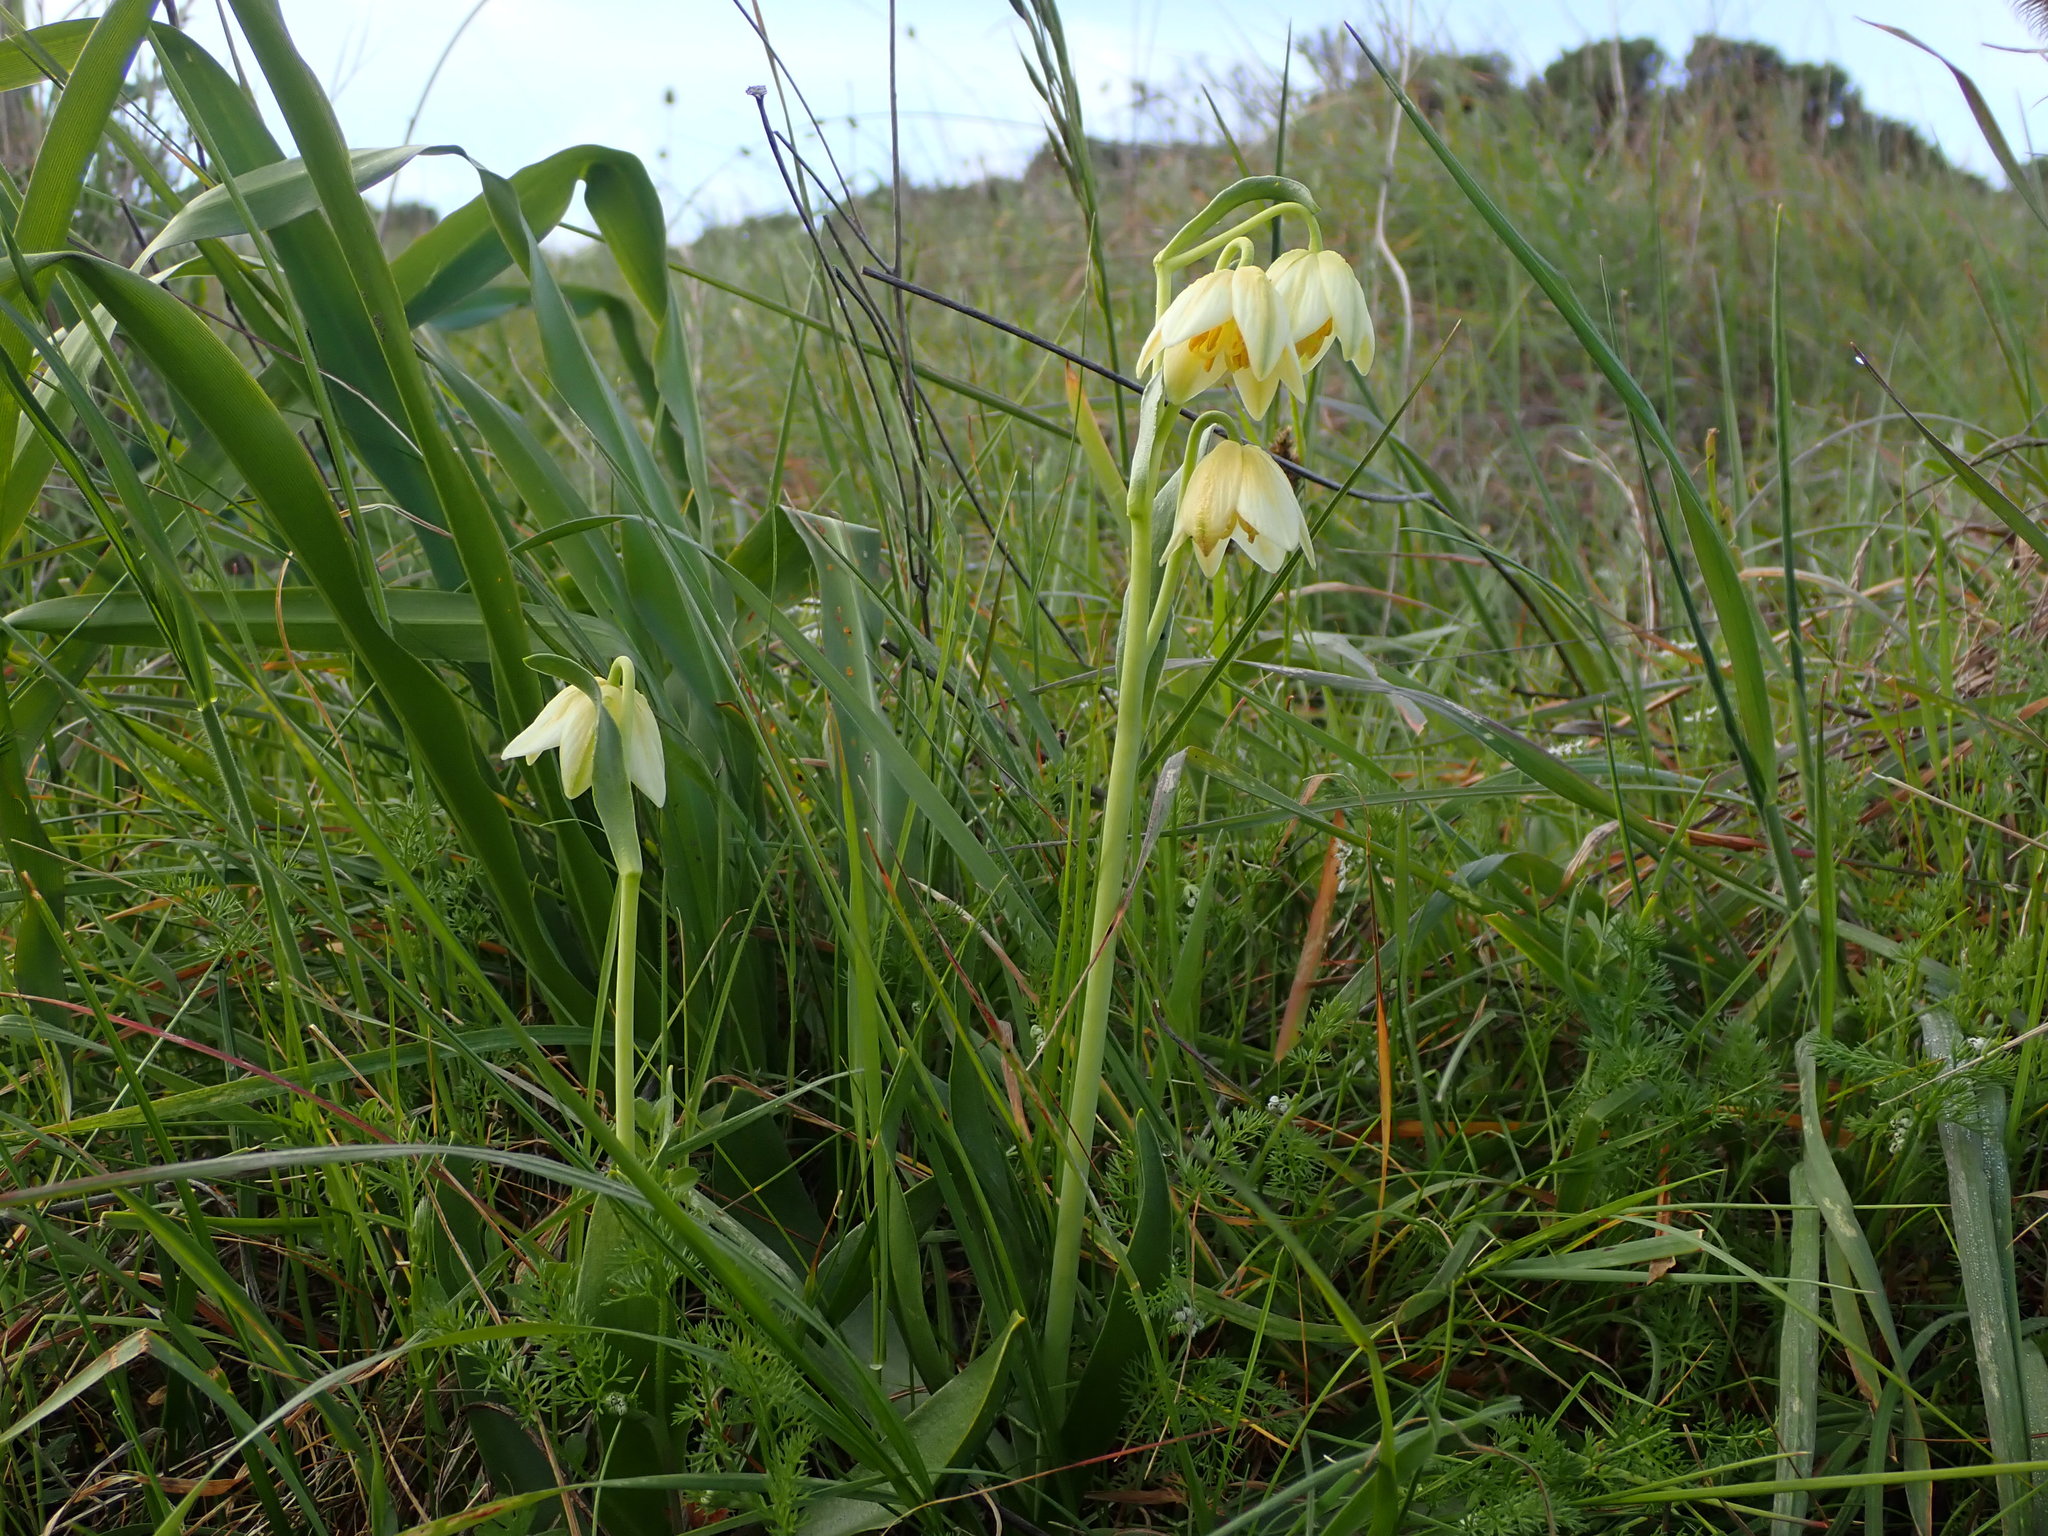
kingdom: Plantae
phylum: Tracheophyta
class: Liliopsida
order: Liliales
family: Liliaceae
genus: Fritillaria
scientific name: Fritillaria liliacea
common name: Fragrant fritillary
